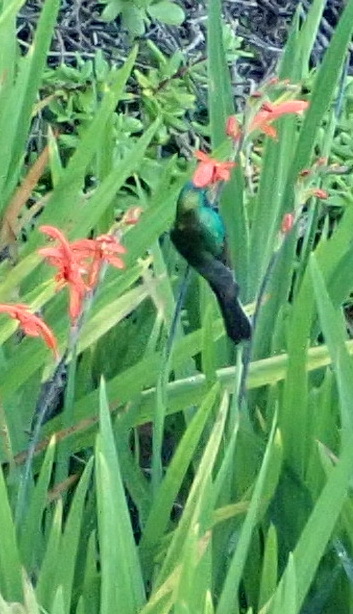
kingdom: Animalia
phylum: Chordata
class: Aves
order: Passeriformes
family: Nectariniidae
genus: Cinnyris
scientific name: Cinnyris afer
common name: Greater double-collared sunbird
